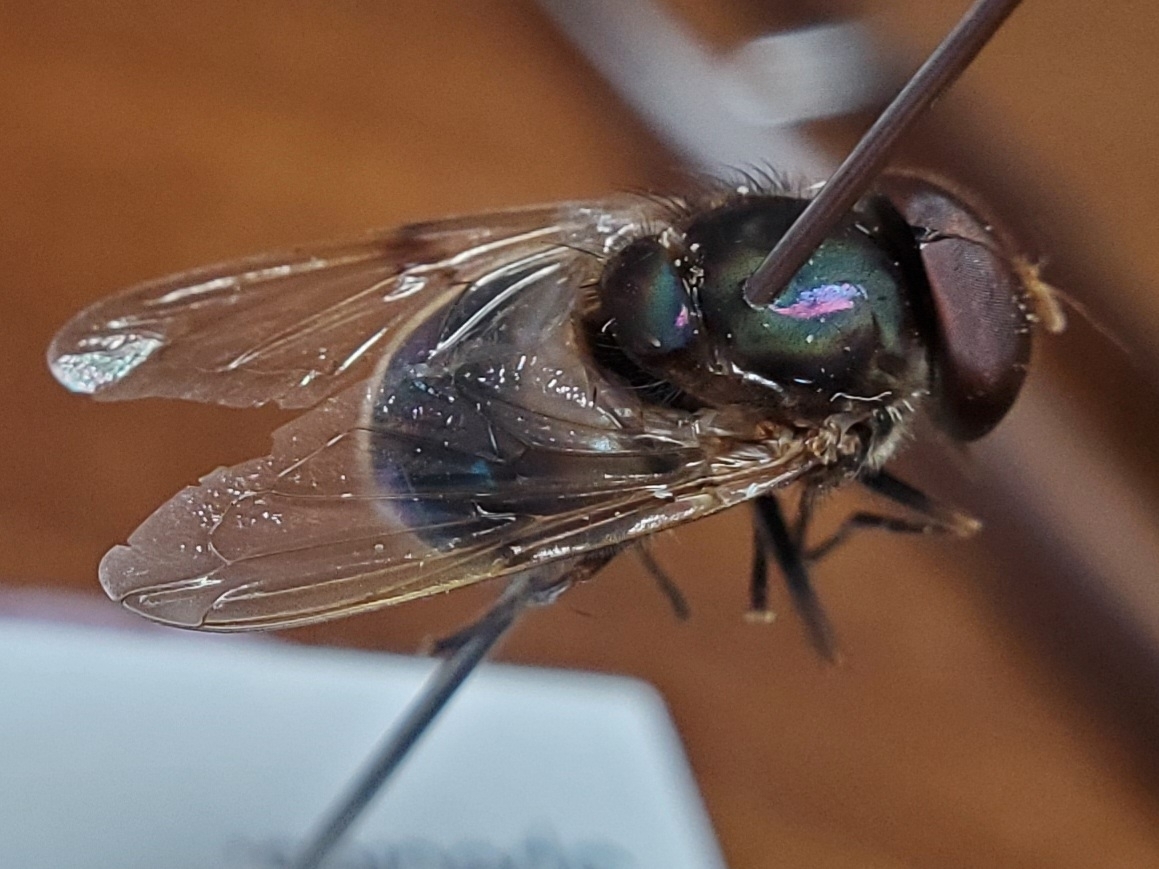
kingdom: Animalia
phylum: Arthropoda
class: Insecta
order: Diptera
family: Syrphidae
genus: Copestylum
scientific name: Copestylum vesicularium
